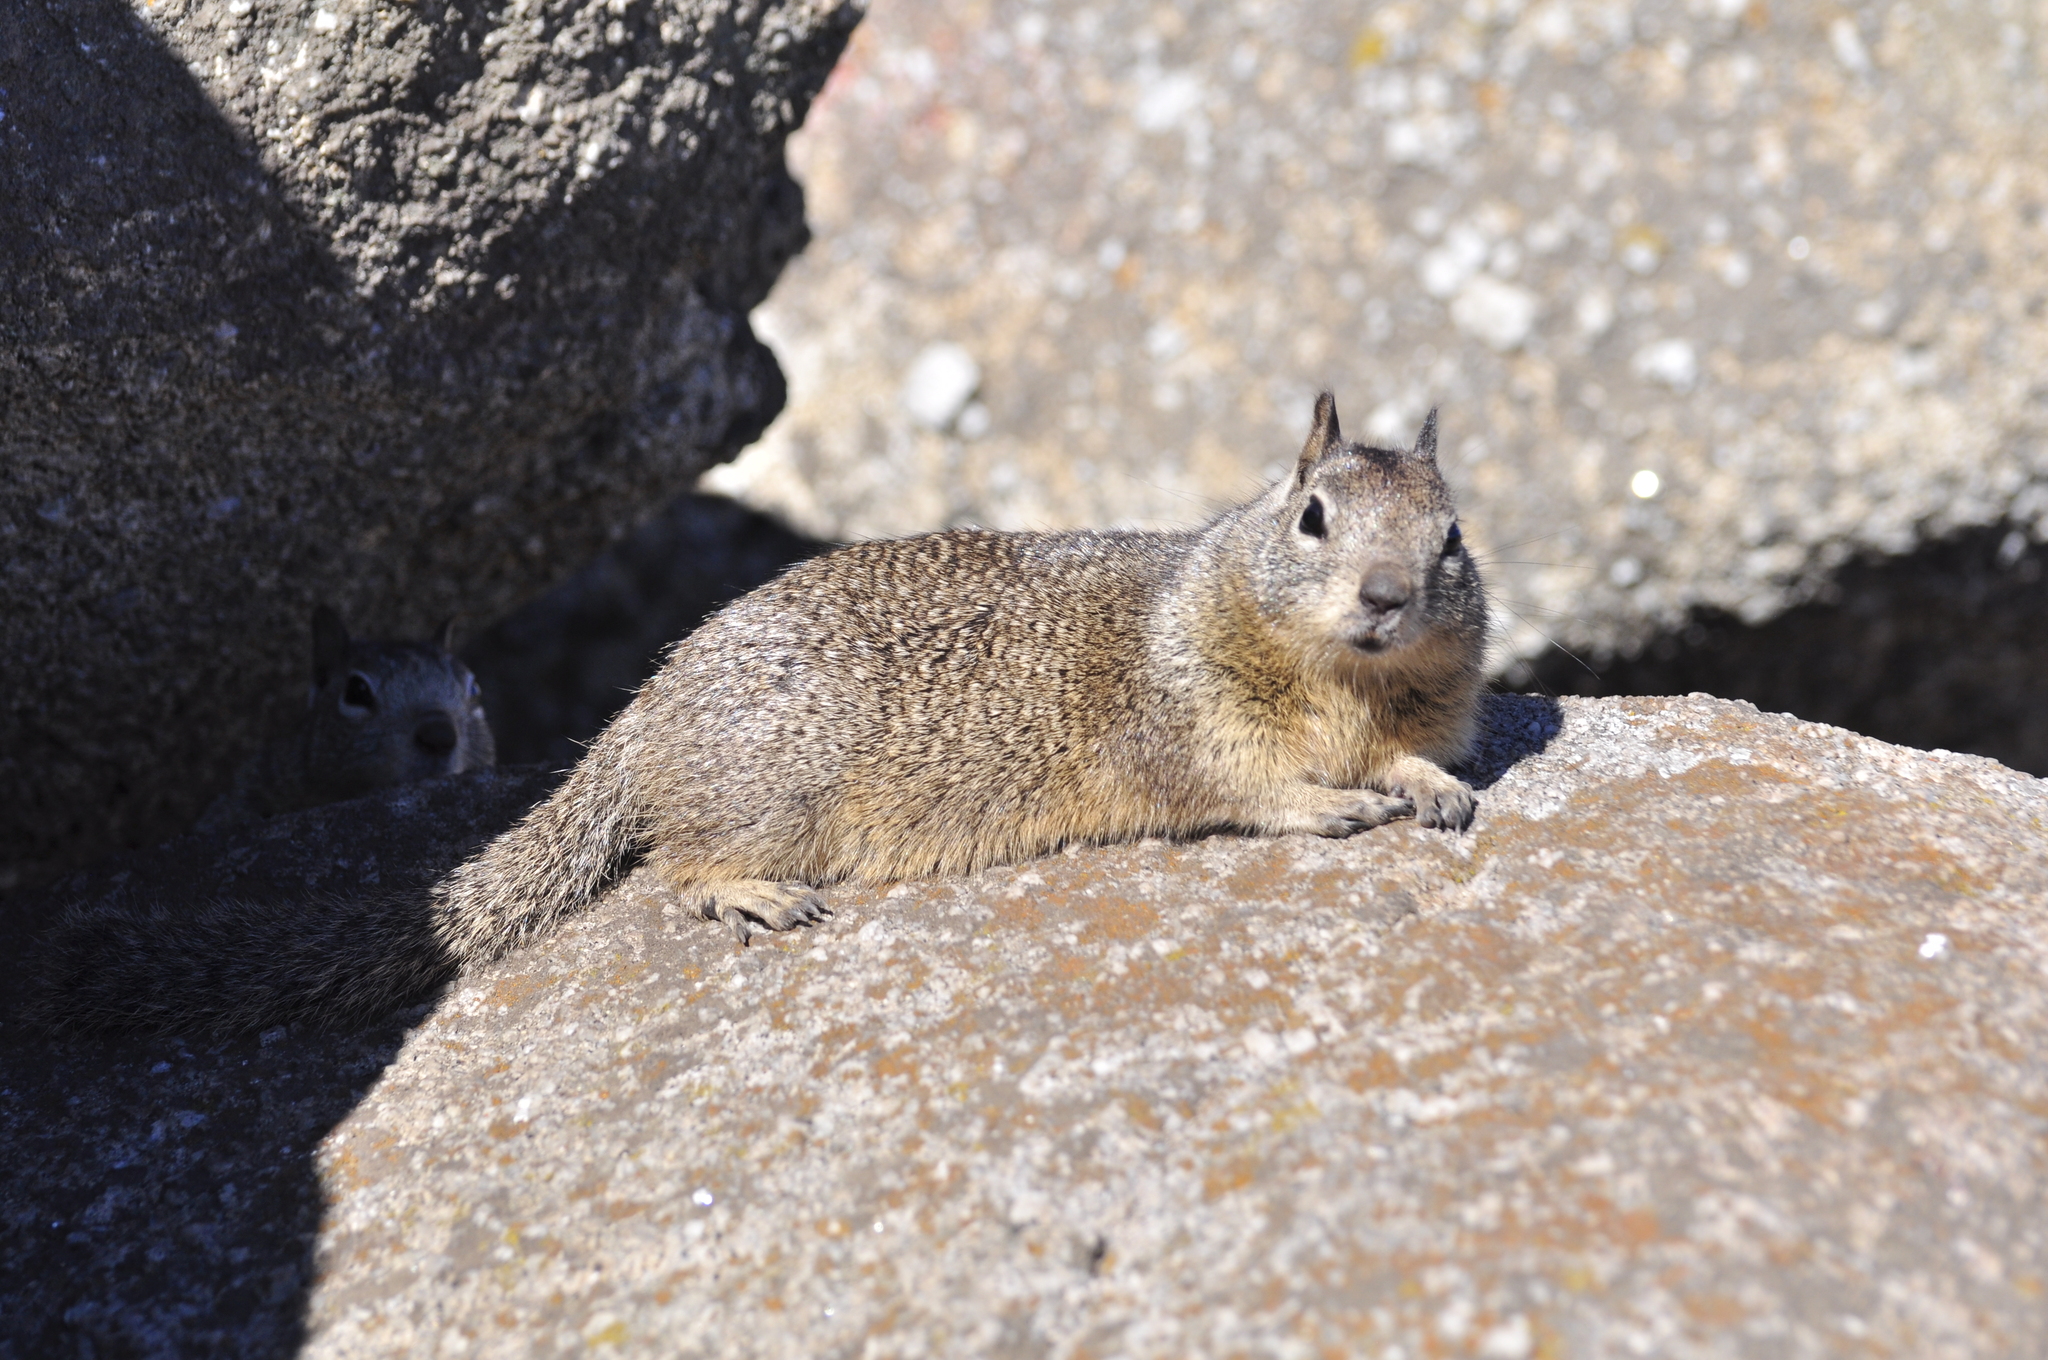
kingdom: Animalia
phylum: Chordata
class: Mammalia
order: Rodentia
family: Sciuridae
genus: Otospermophilus
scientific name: Otospermophilus beecheyi
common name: California ground squirrel
